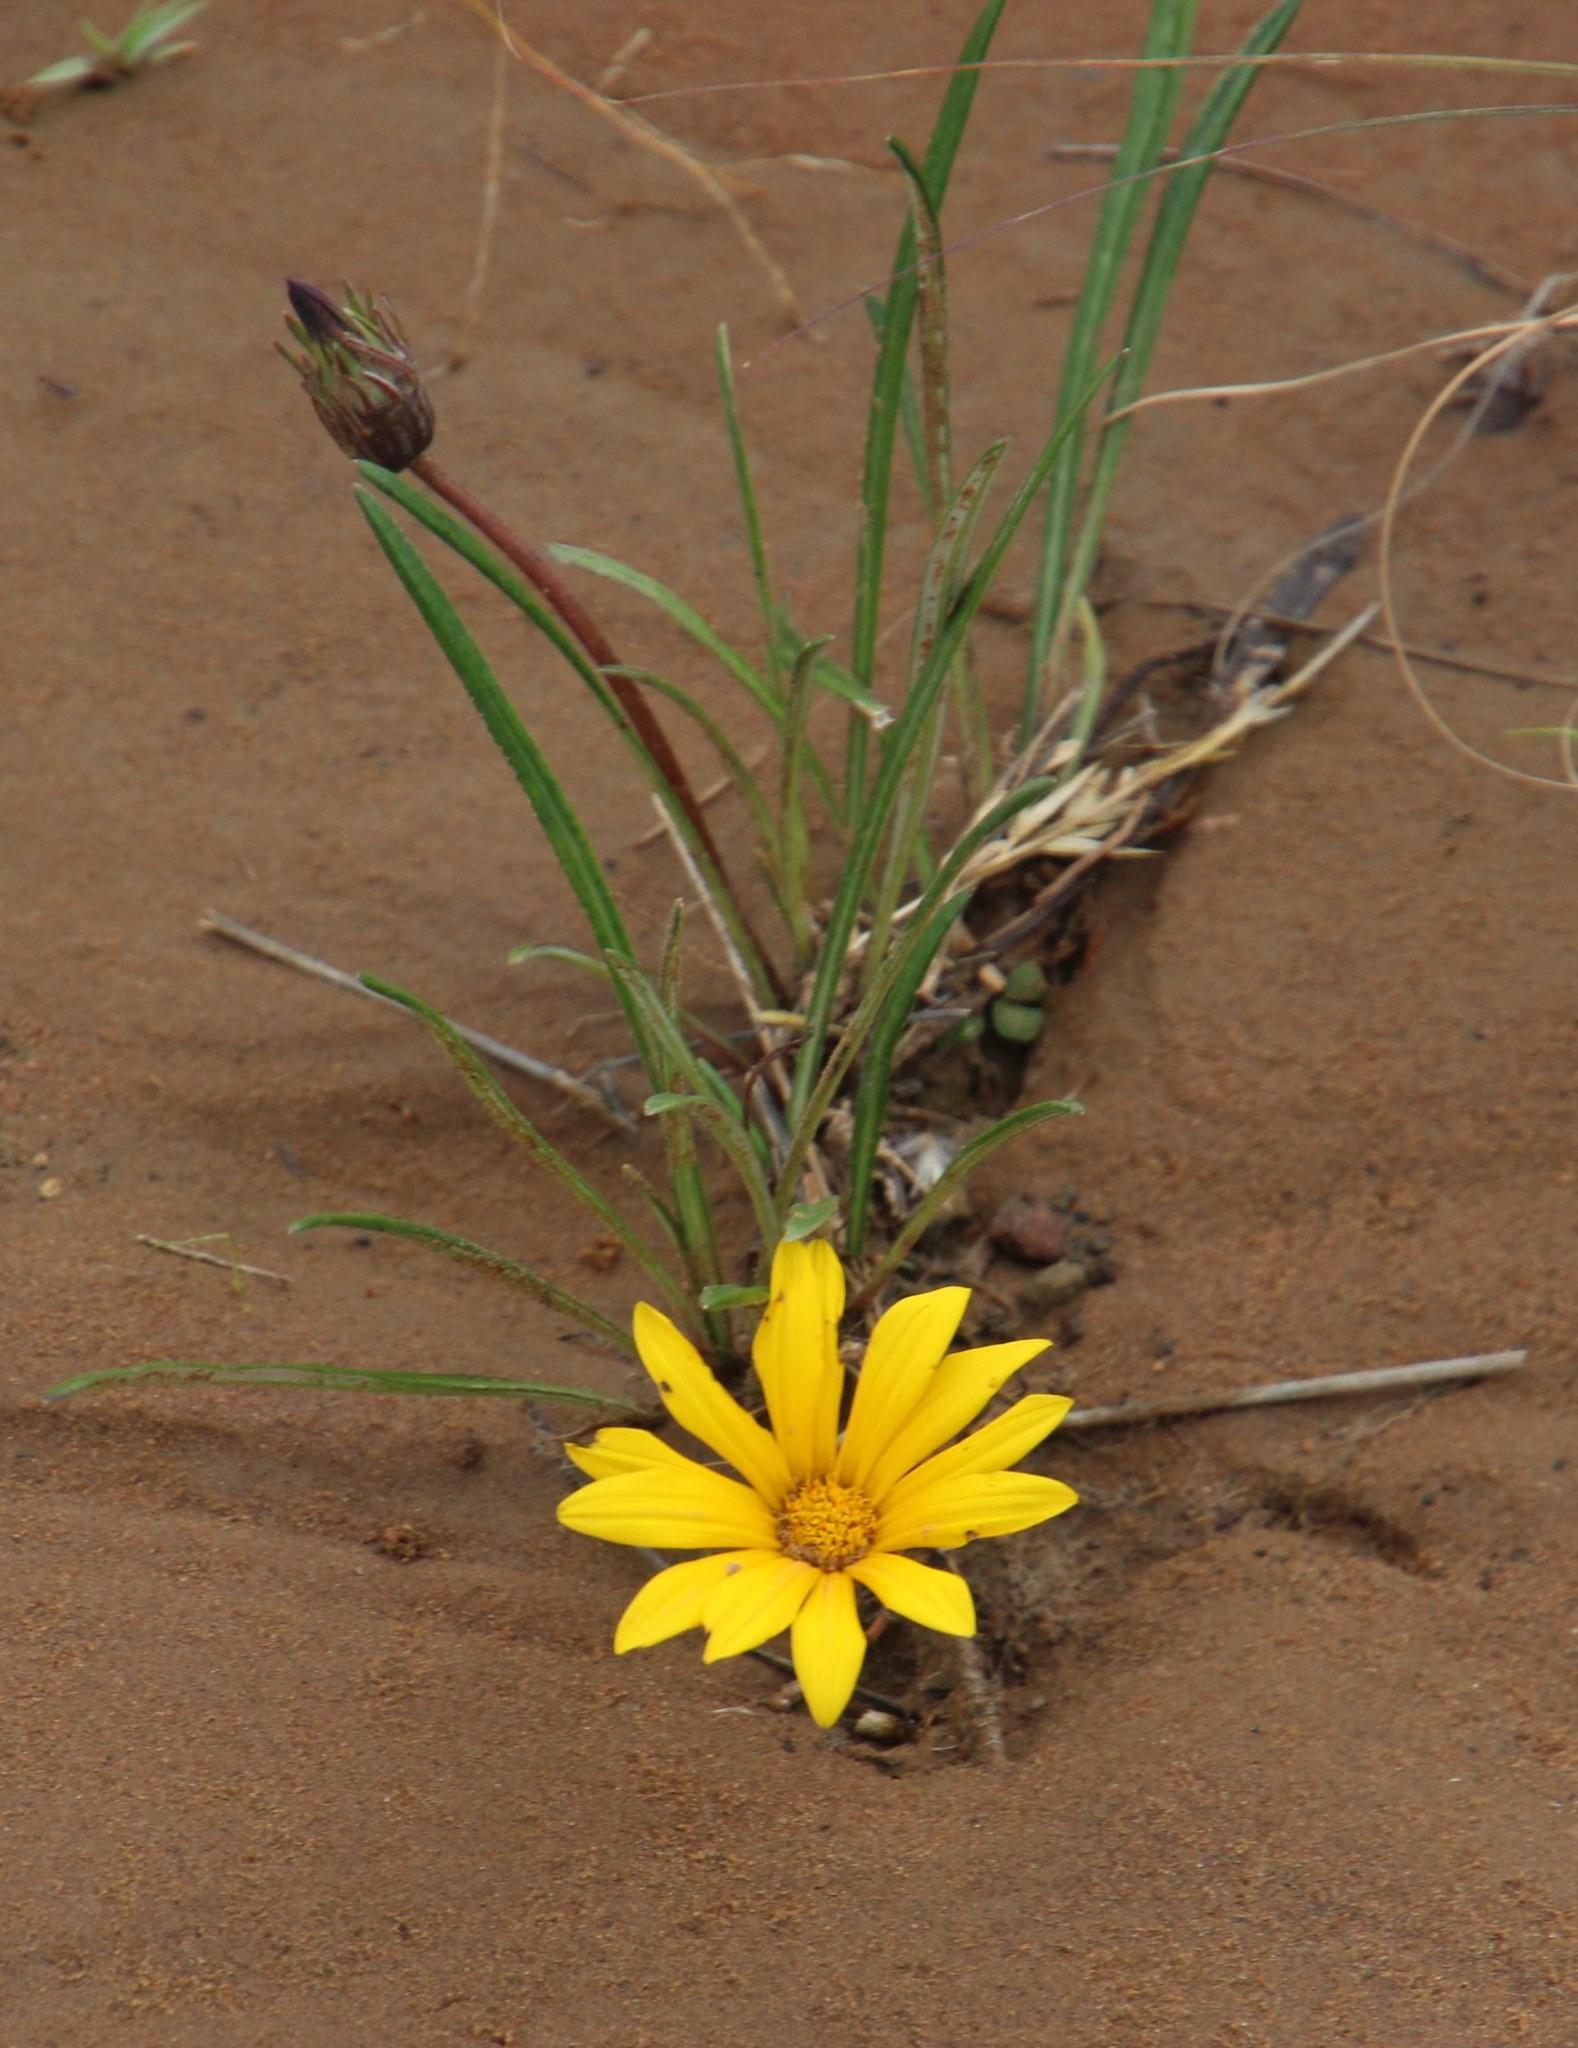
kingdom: Plantae
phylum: Tracheophyta
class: Magnoliopsida
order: Asterales
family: Asteraceae
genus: Gazania
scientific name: Gazania linearis
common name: Treasureflower
